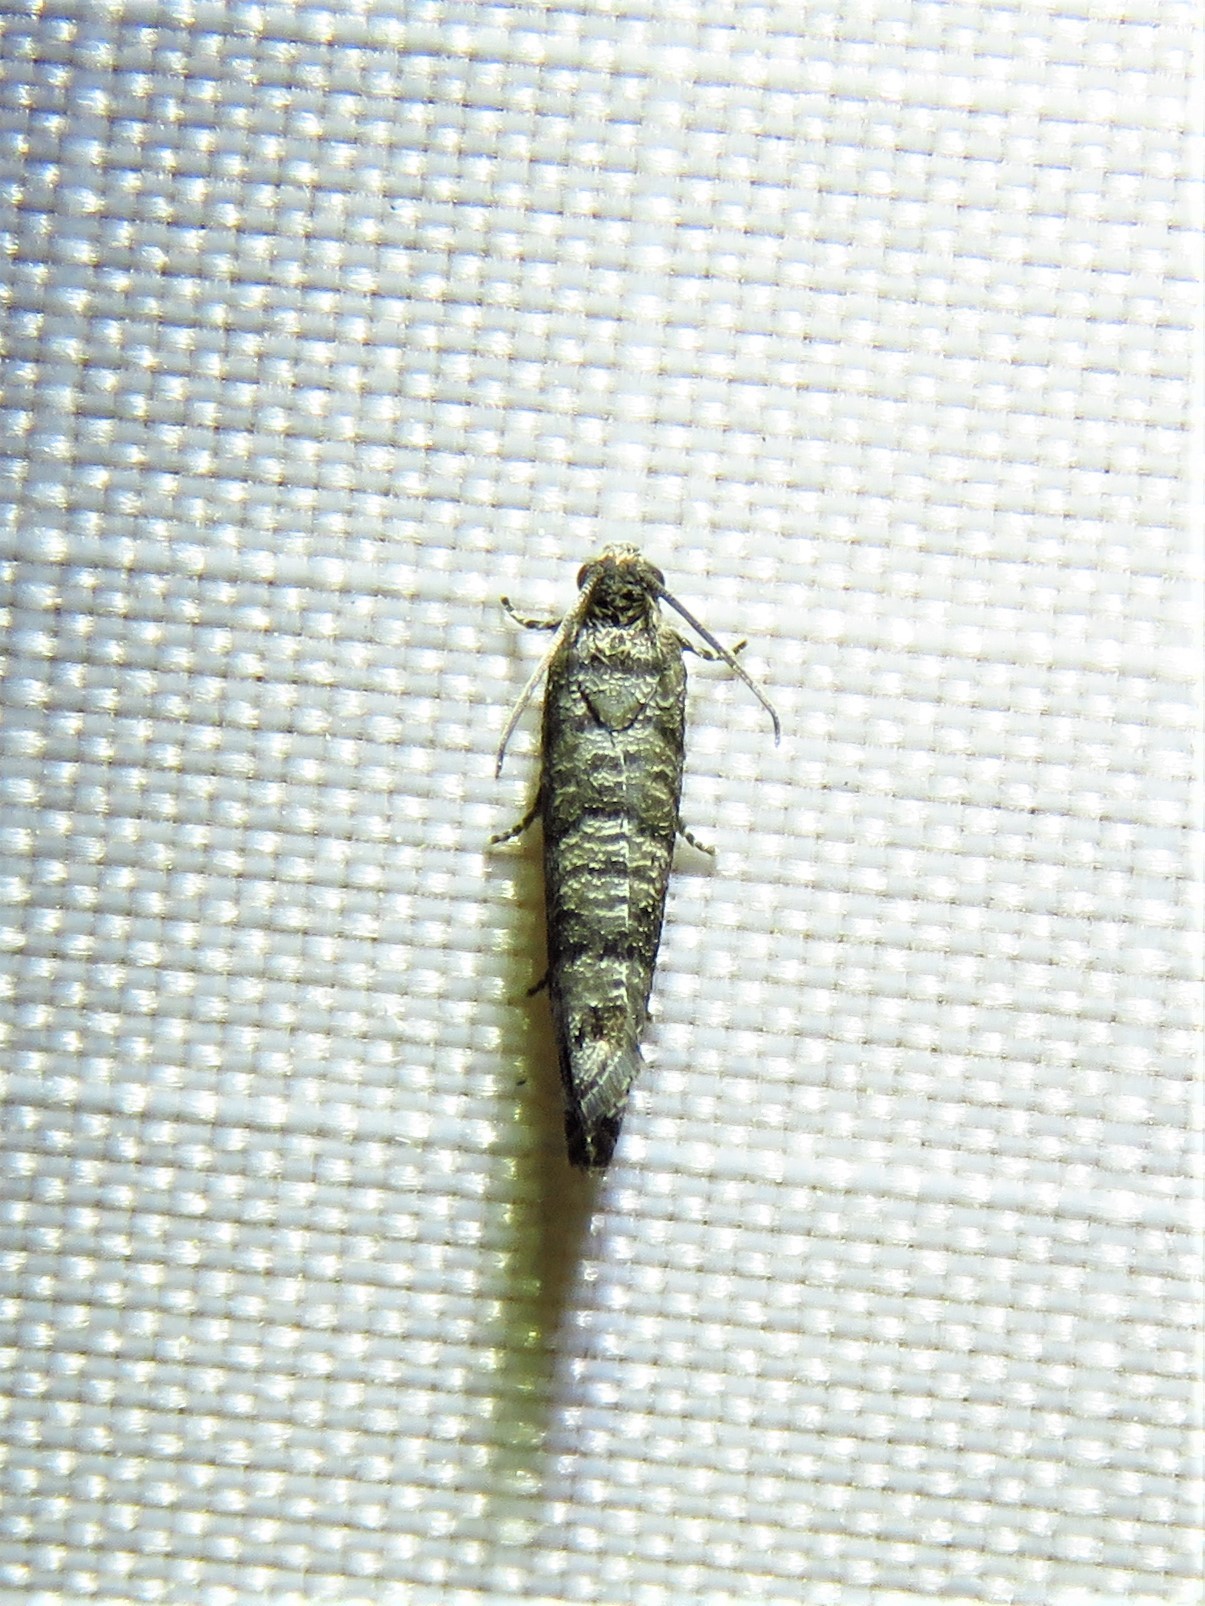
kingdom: Animalia
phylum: Arthropoda
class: Insecta
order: Lepidoptera
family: Noctuidae
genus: Aspila
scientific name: Aspila
